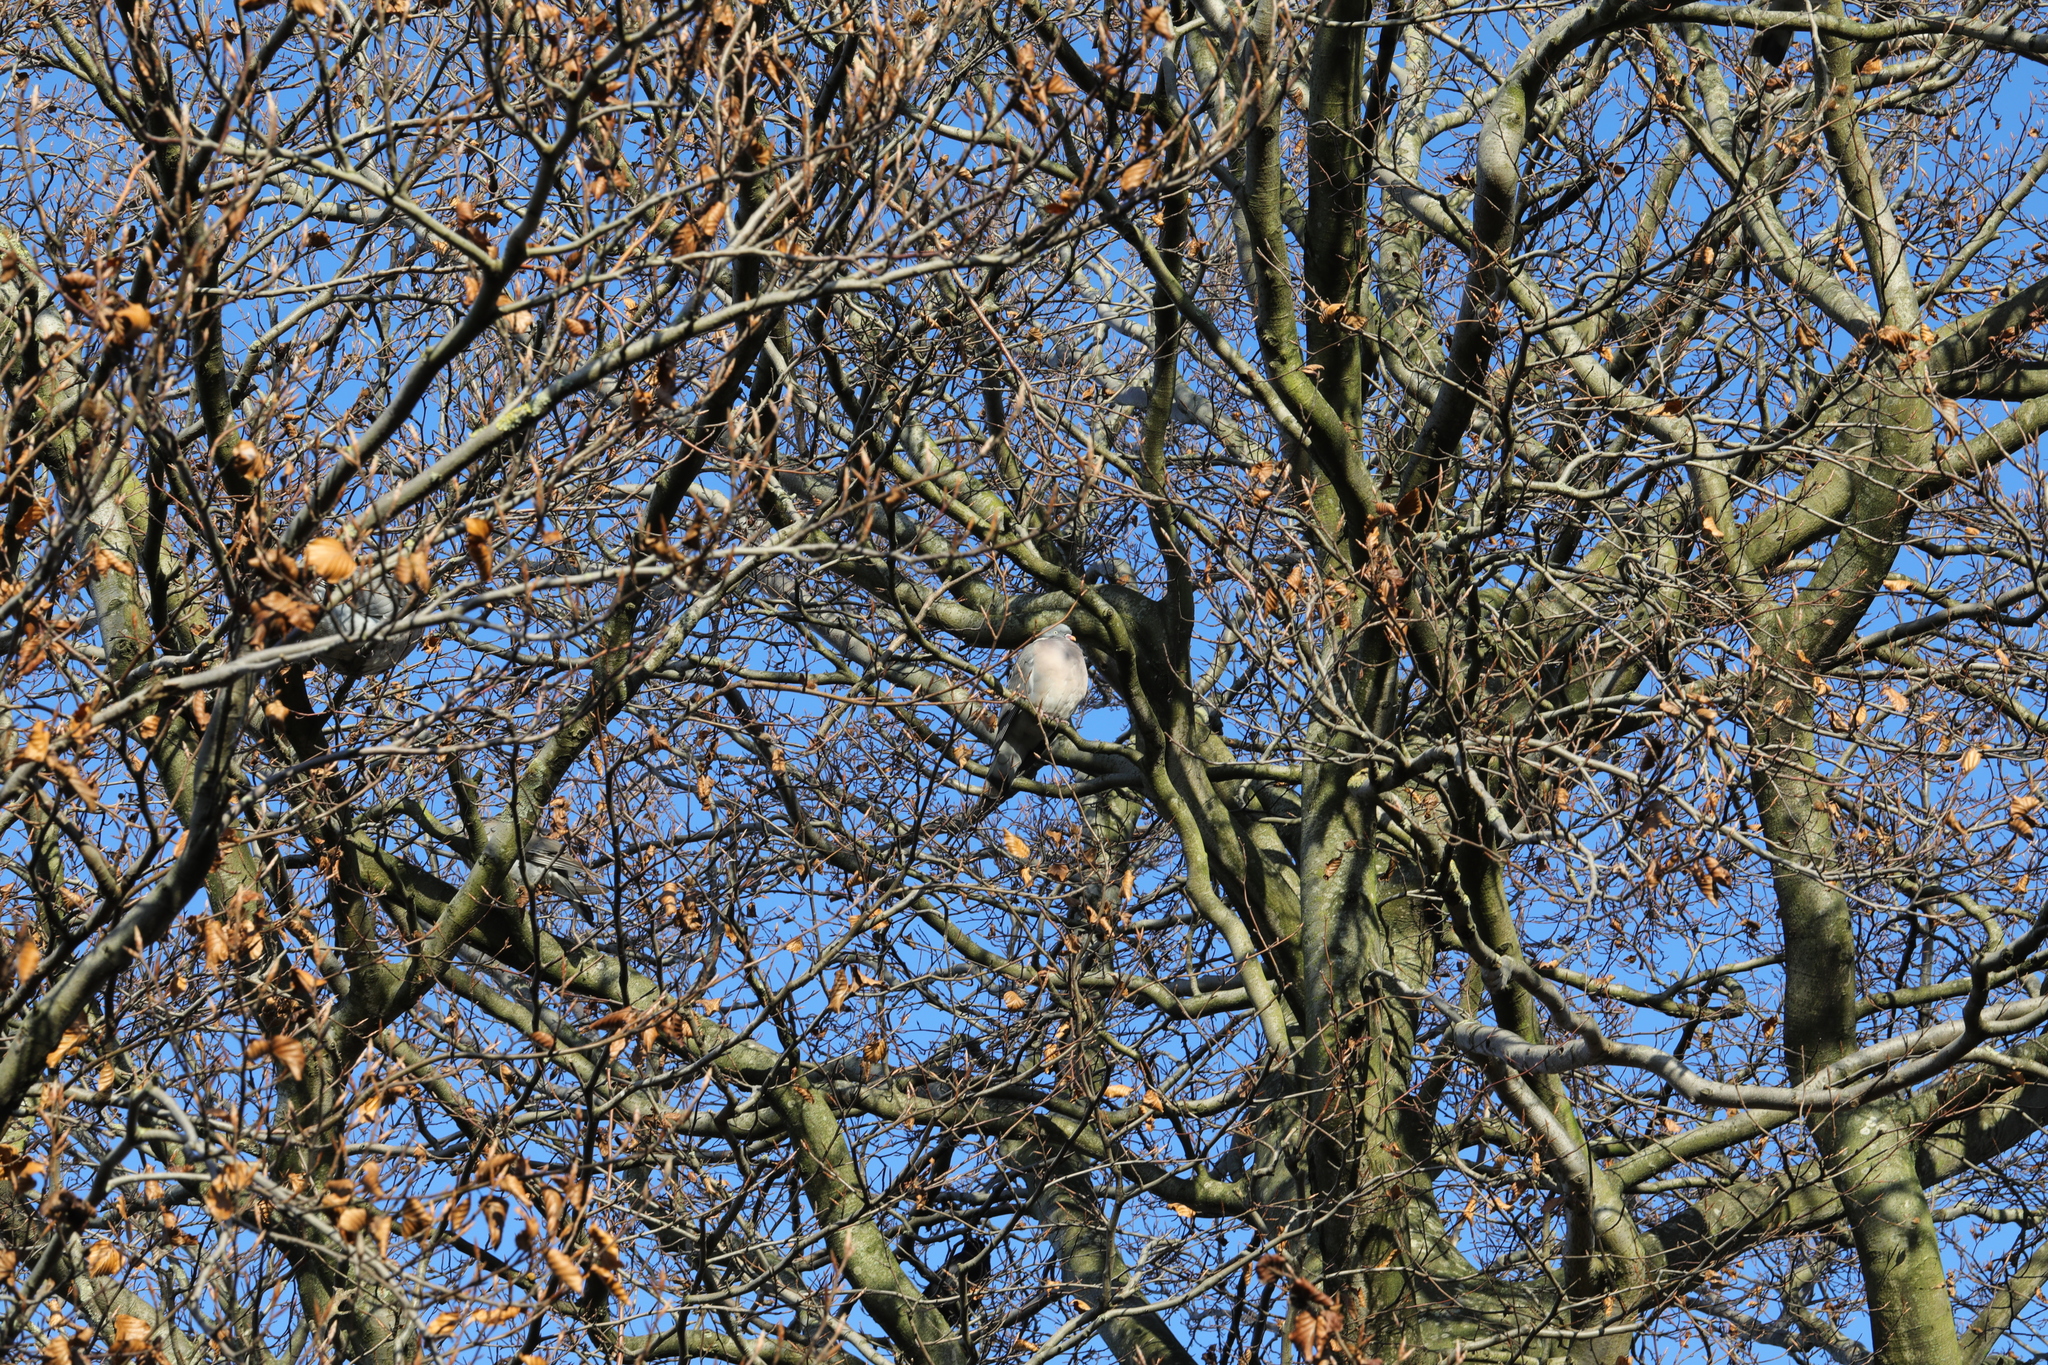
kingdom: Animalia
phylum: Chordata
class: Aves
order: Columbiformes
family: Columbidae
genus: Columba
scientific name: Columba palumbus
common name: Common wood pigeon
